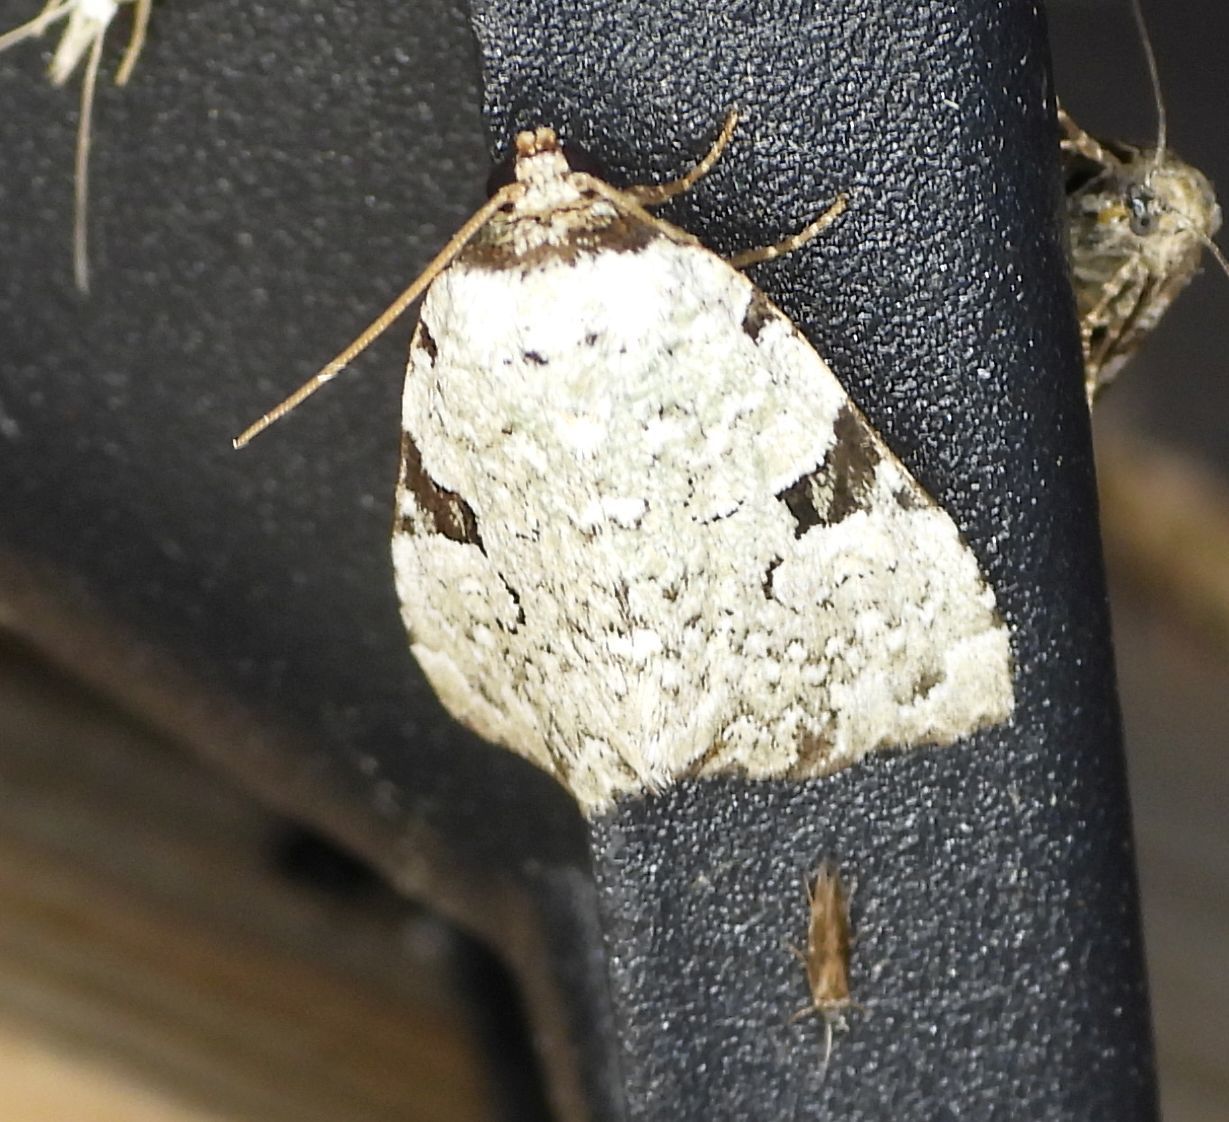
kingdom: Animalia
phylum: Arthropoda
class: Insecta
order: Lepidoptera
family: Noctuidae
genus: Leuconycta
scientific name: Leuconycta diphteroides
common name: Green leuconycta moth
